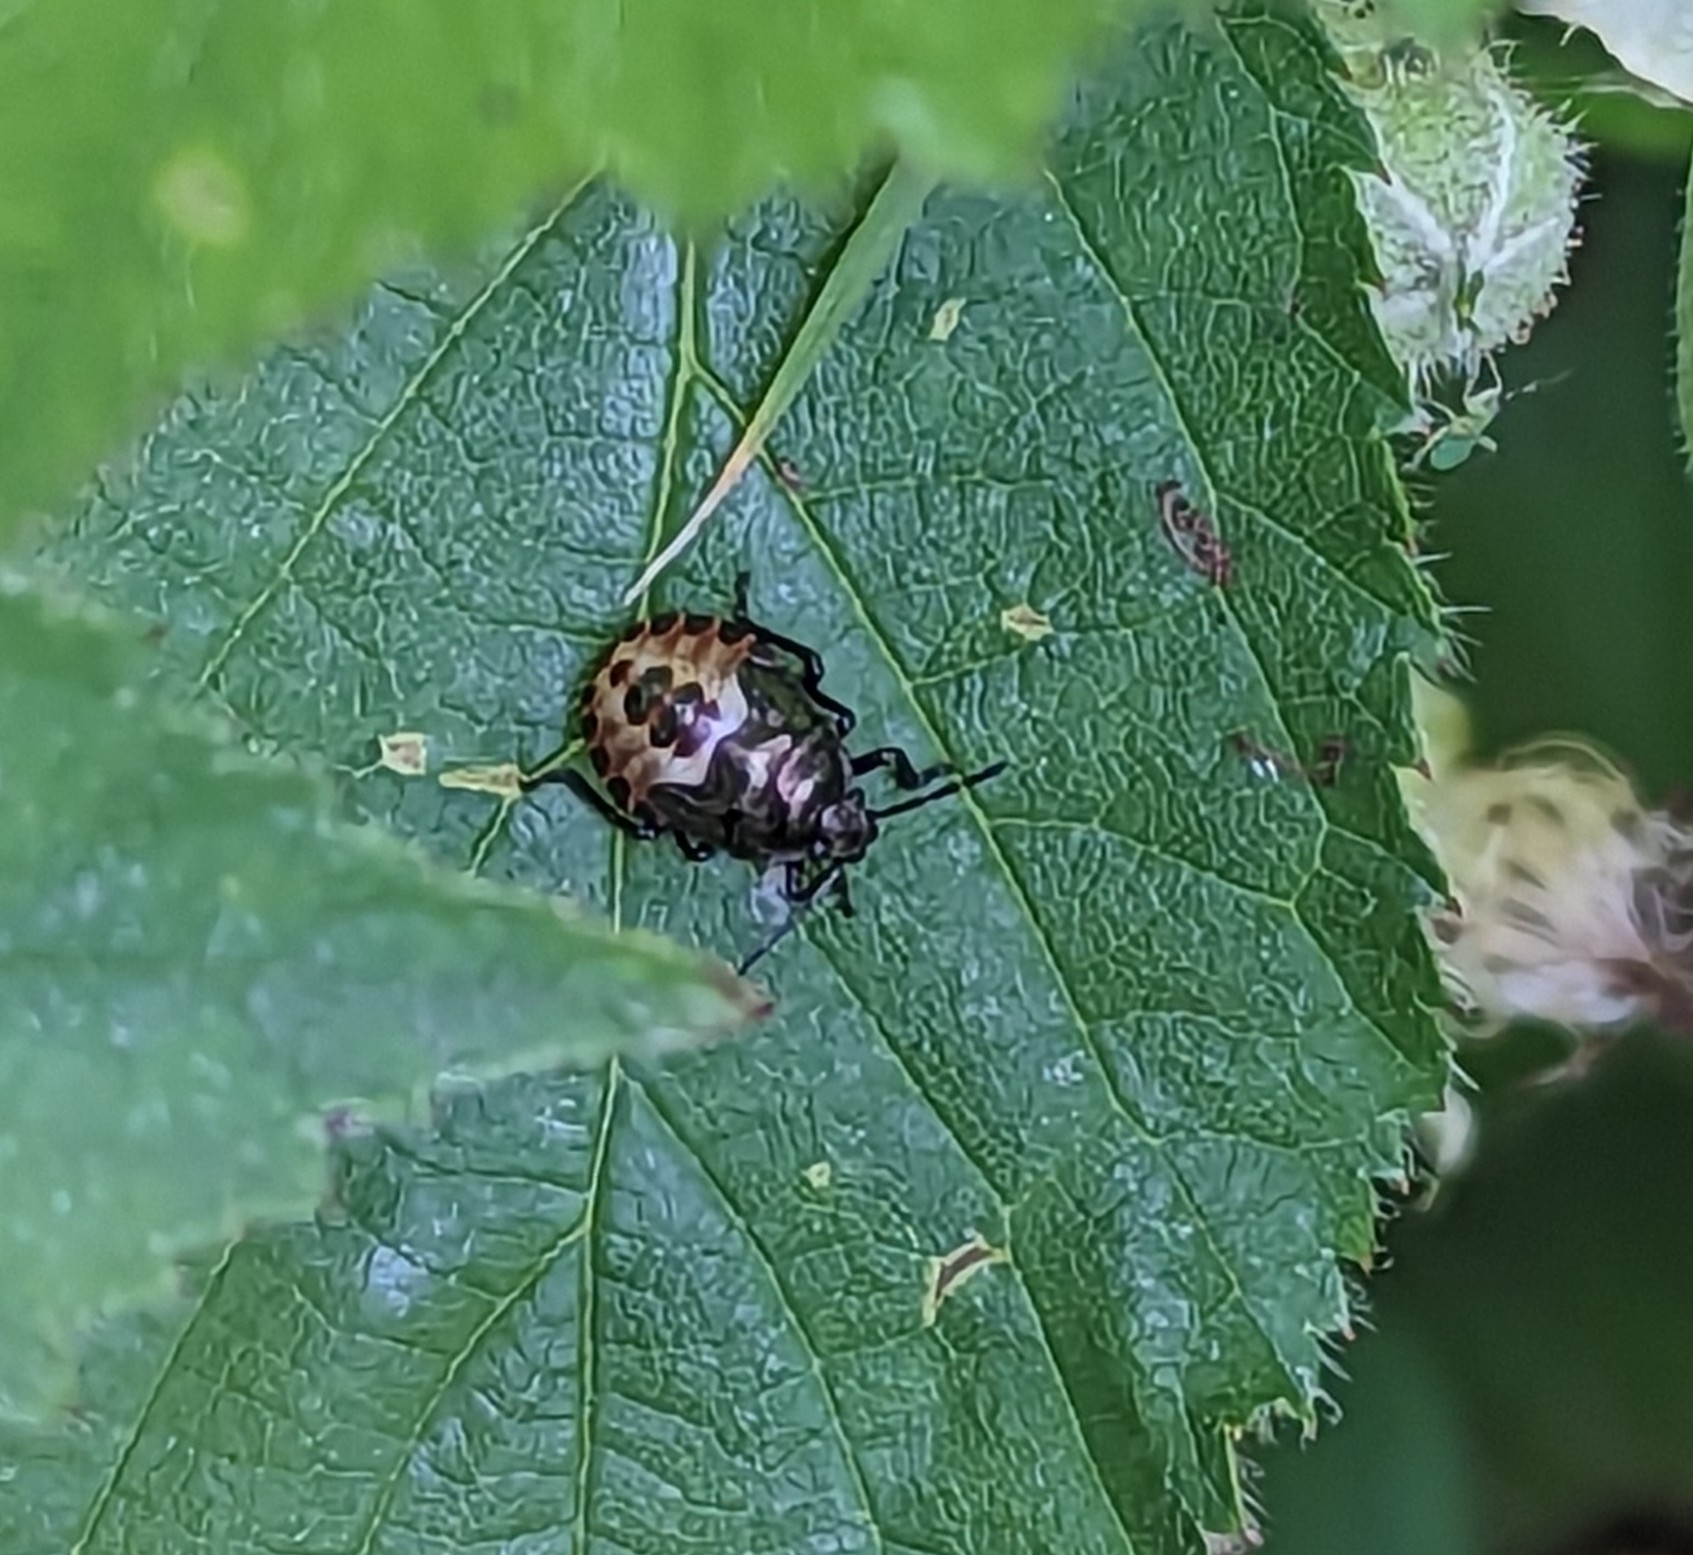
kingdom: Animalia
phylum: Arthropoda
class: Insecta
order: Hemiptera
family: Pentatomidae
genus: Rhacognathus
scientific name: Rhacognathus punctatus
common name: Heather bug
